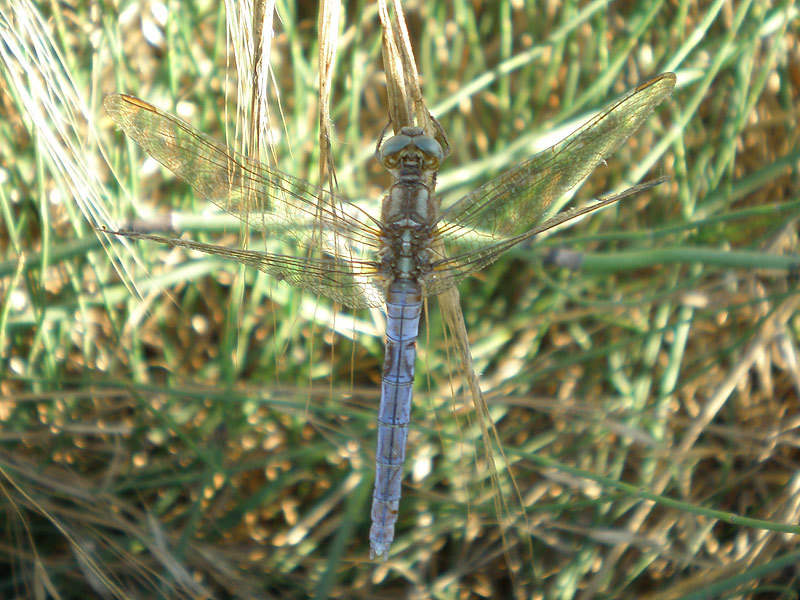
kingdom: Animalia
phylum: Arthropoda
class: Insecta
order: Odonata
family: Libellulidae
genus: Orthetrum
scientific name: Orthetrum coerulescens
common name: Keeled skimmer
